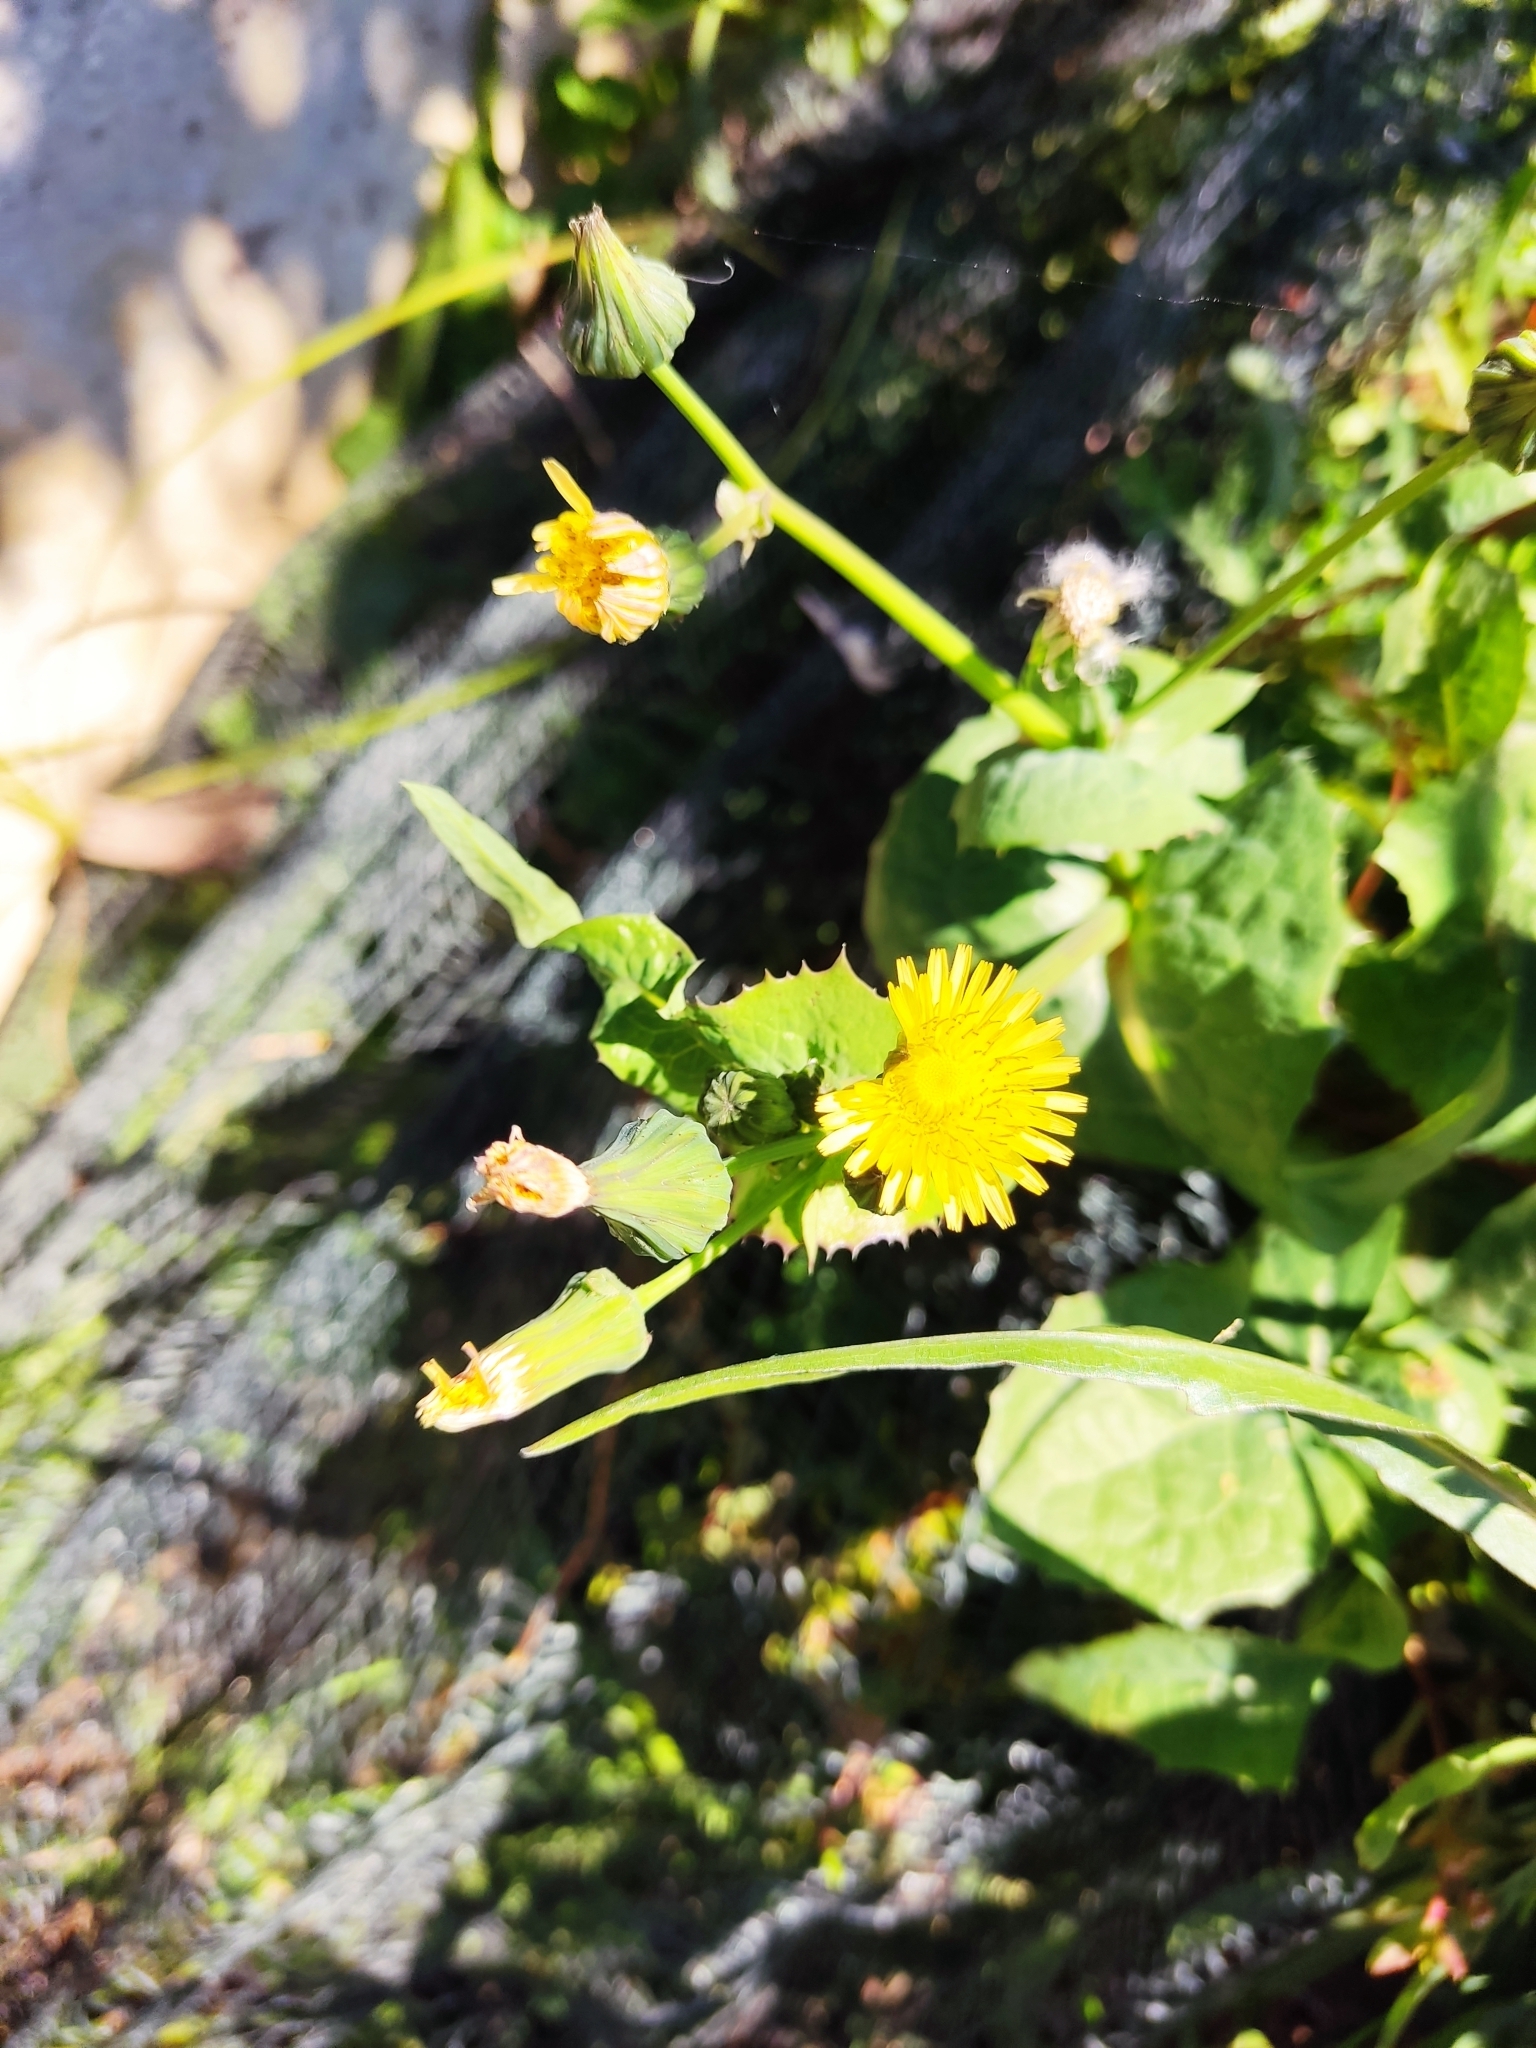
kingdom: Plantae
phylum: Tracheophyta
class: Magnoliopsida
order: Asterales
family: Asteraceae
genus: Sonchus
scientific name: Sonchus oleraceus
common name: Common sowthistle
